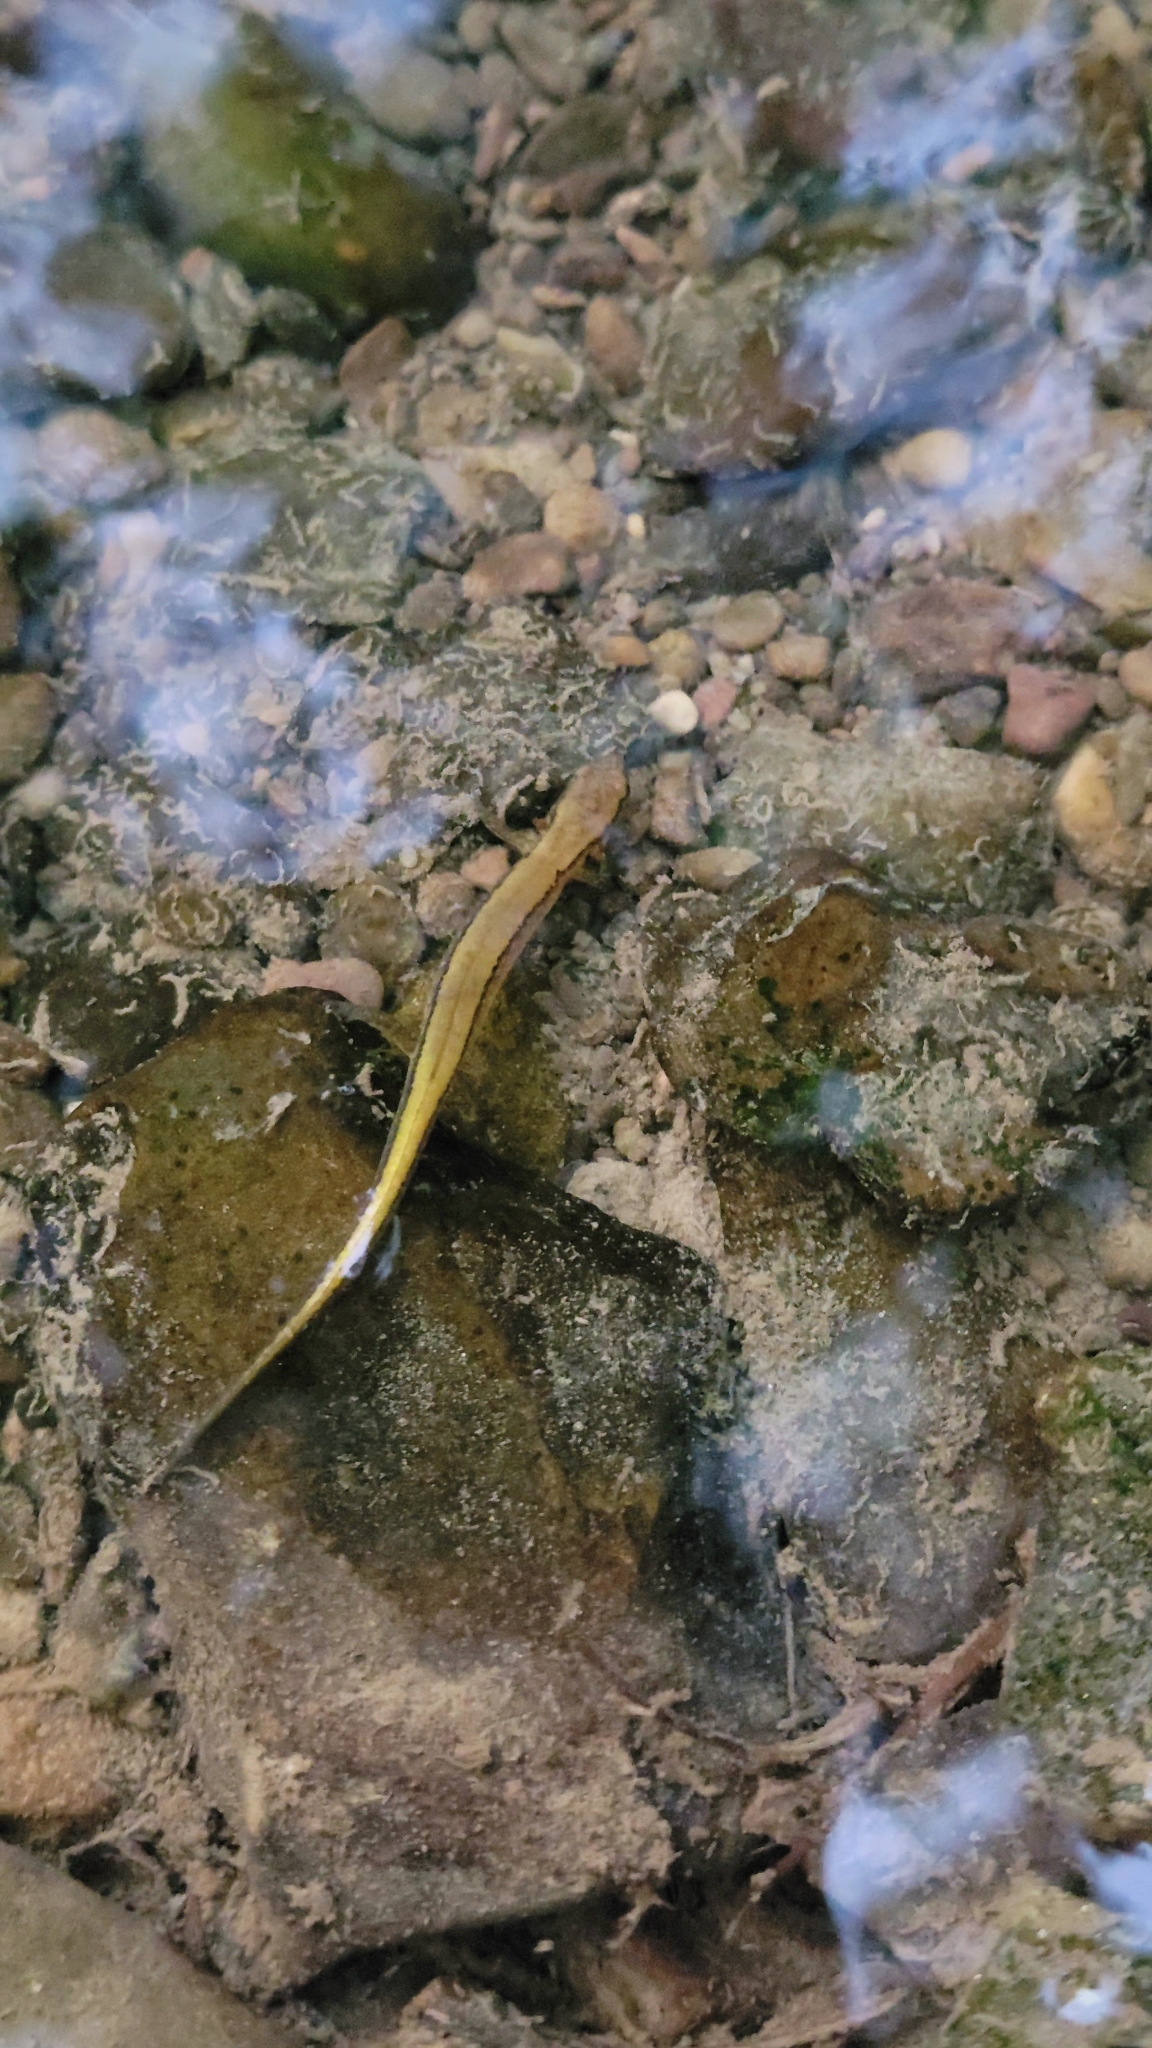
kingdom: Animalia
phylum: Chordata
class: Amphibia
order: Caudata
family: Plethodontidae
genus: Eurycea
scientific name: Eurycea cirrigera
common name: Southern two-lined salamander
